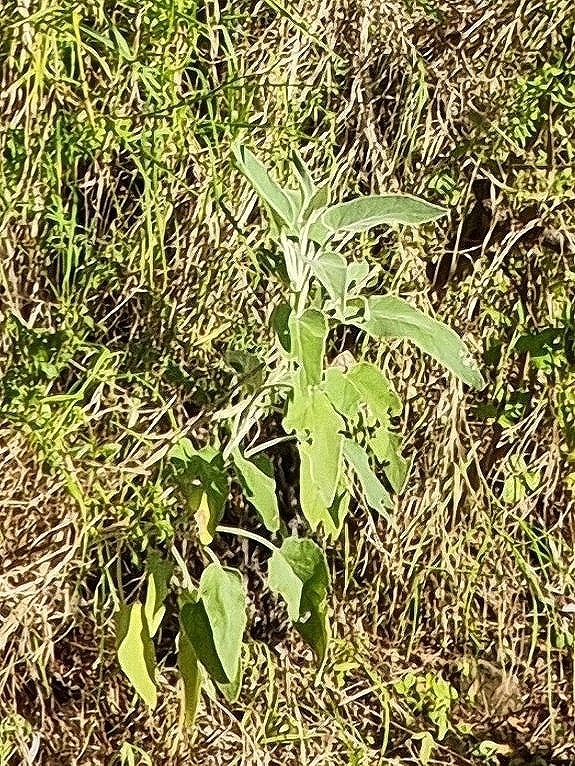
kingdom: Plantae
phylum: Tracheophyta
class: Magnoliopsida
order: Lamiales
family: Lamiaceae
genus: Sideritis
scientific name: Sideritis candicans
